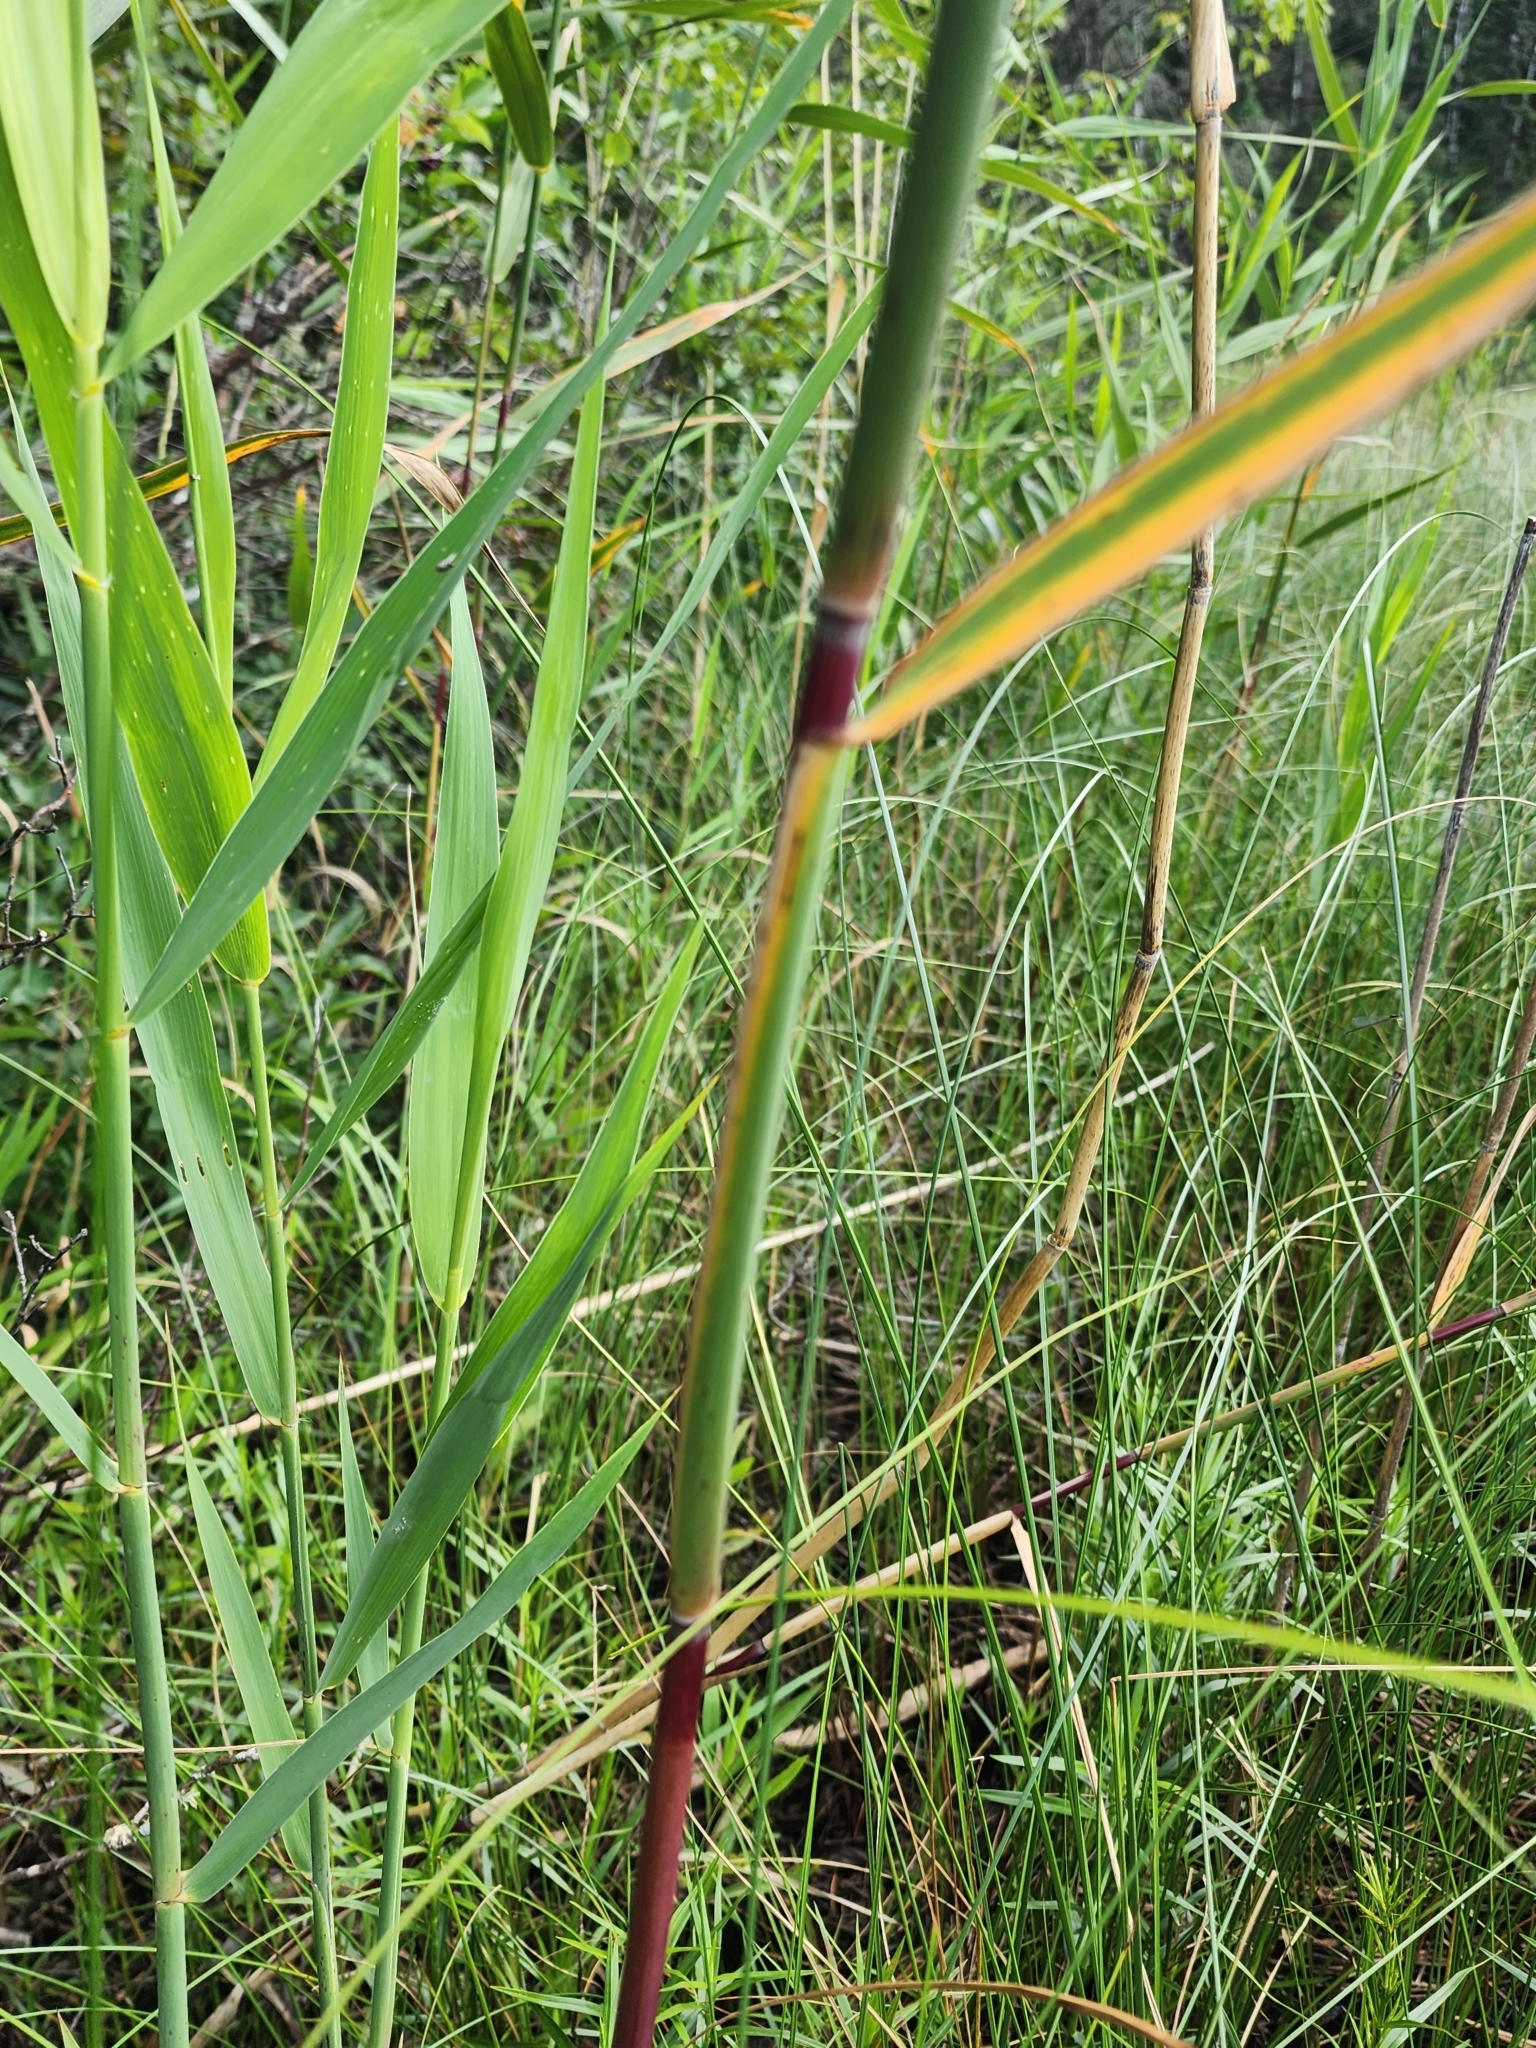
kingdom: Plantae
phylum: Tracheophyta
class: Liliopsida
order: Poales
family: Poaceae
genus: Phragmites
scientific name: Phragmites australis
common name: Common reed
